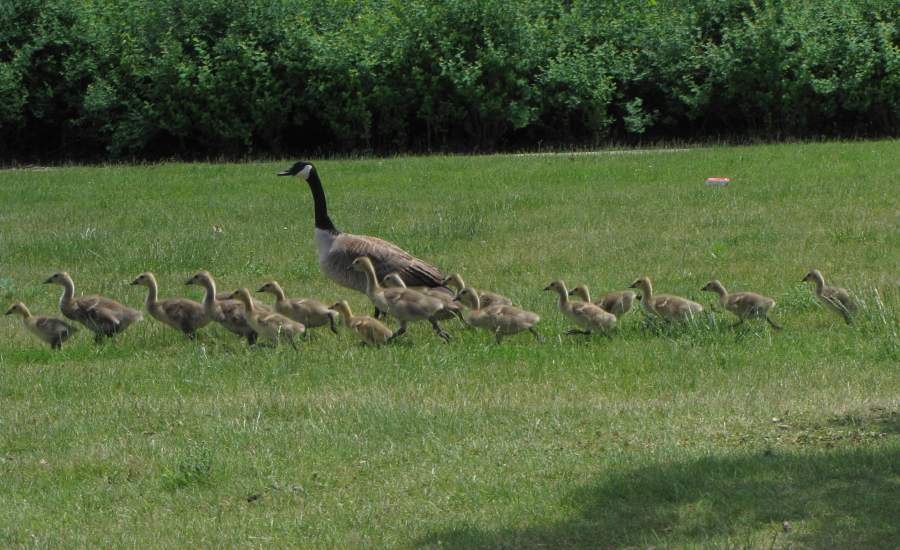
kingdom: Animalia
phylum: Chordata
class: Aves
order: Anseriformes
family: Anatidae
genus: Branta
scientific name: Branta canadensis
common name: Canada goose
